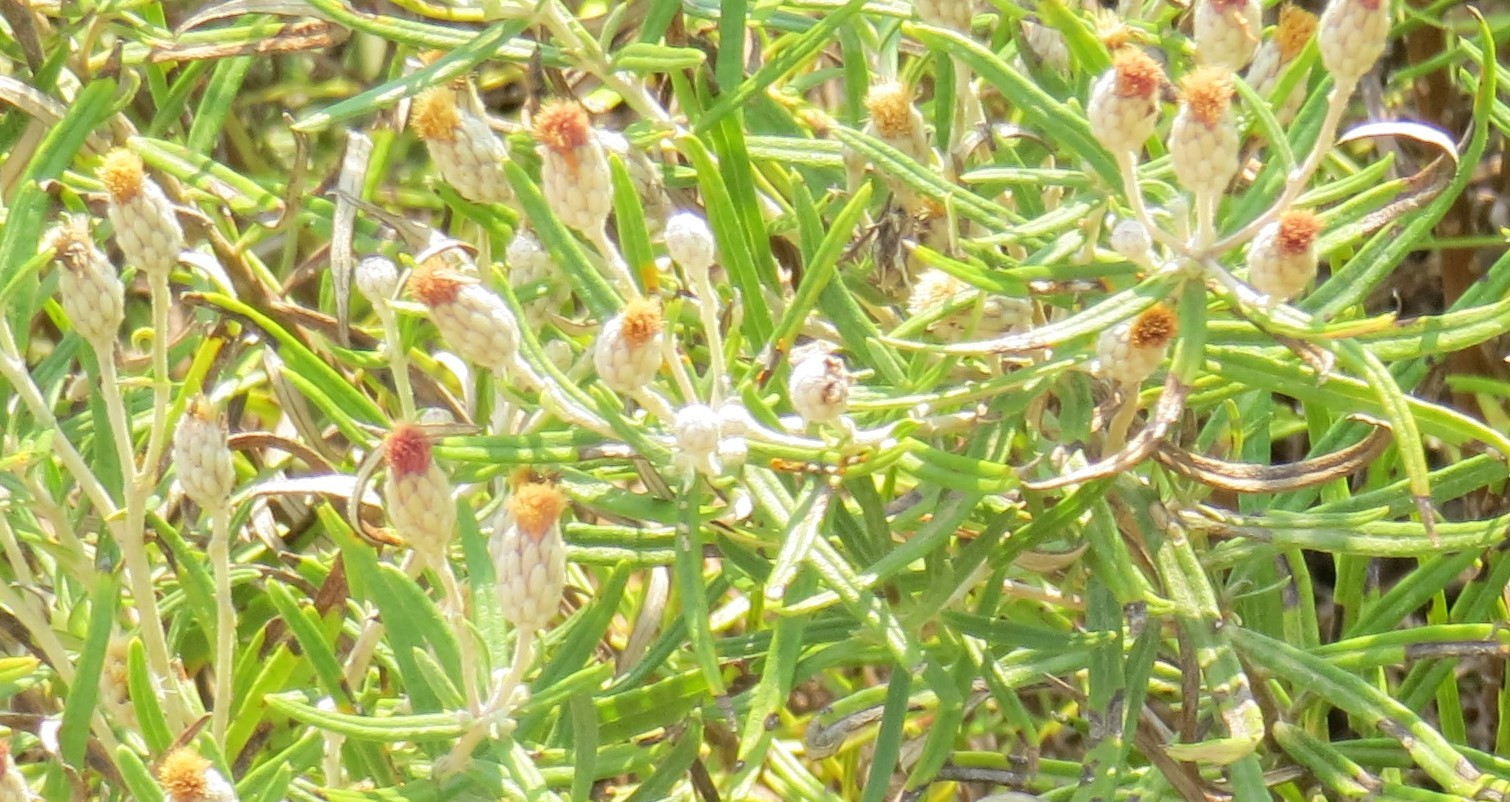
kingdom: Plantae
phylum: Tracheophyta
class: Magnoliopsida
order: Asterales
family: Asteraceae
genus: Vernonia
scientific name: Vernonia lindheimeri
